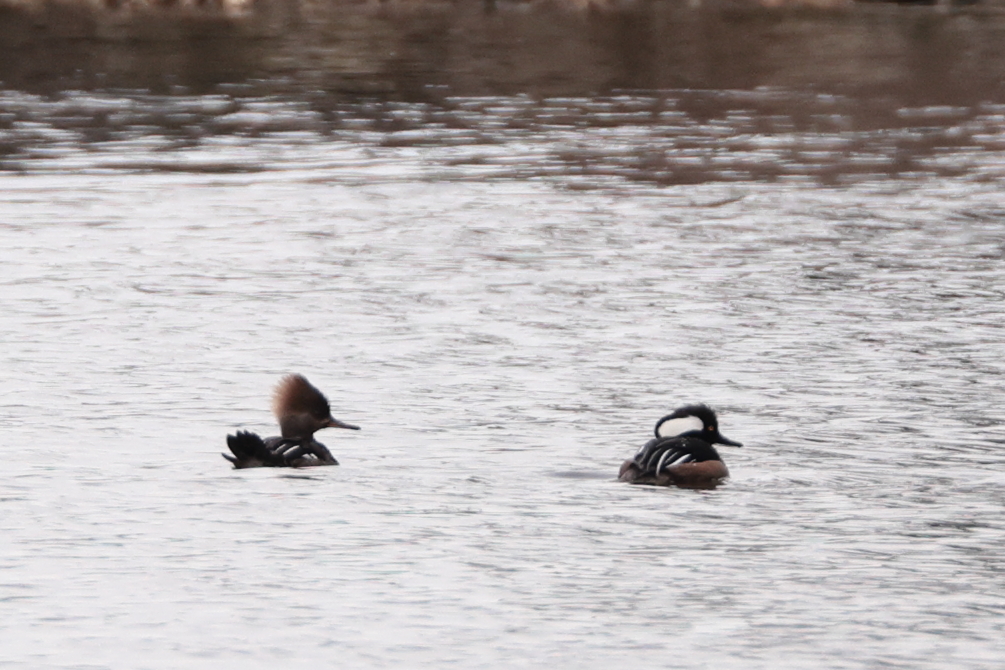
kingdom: Animalia
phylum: Chordata
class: Aves
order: Anseriformes
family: Anatidae
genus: Lophodytes
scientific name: Lophodytes cucullatus
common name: Hooded merganser
